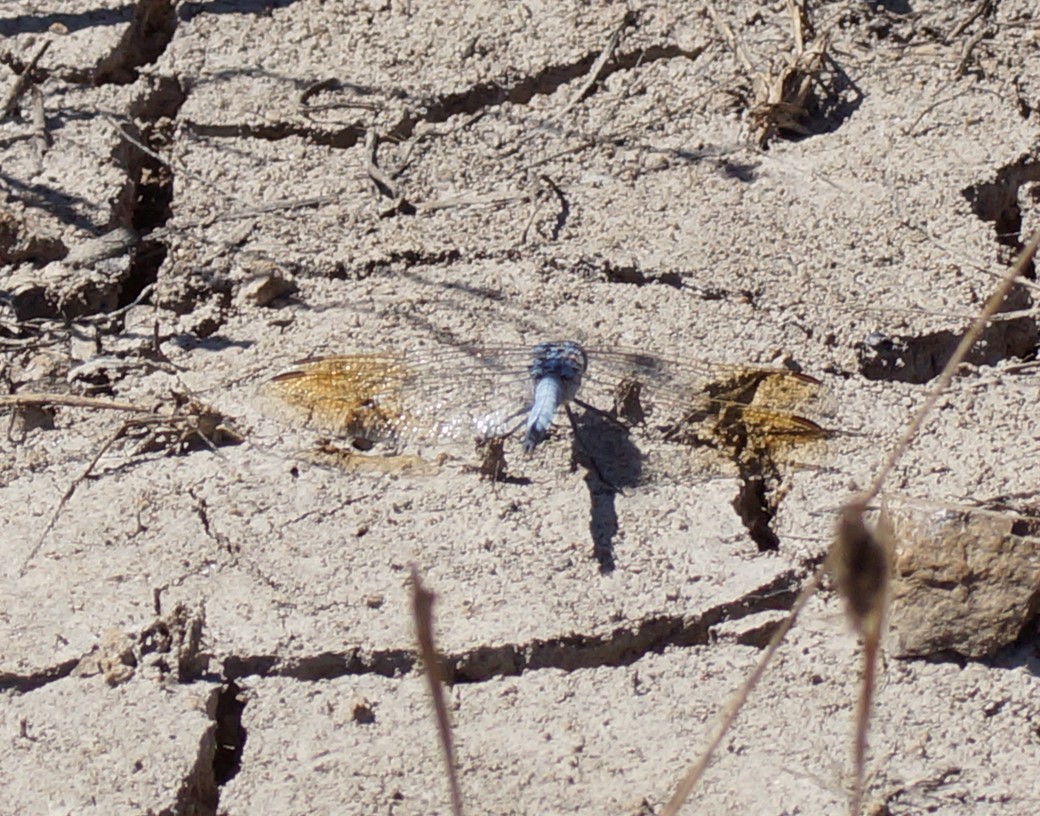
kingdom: Animalia
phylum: Arthropoda
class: Insecta
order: Odonata
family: Libellulidae
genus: Orthetrum
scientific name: Orthetrum caledonicum
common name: Blue skimmer
